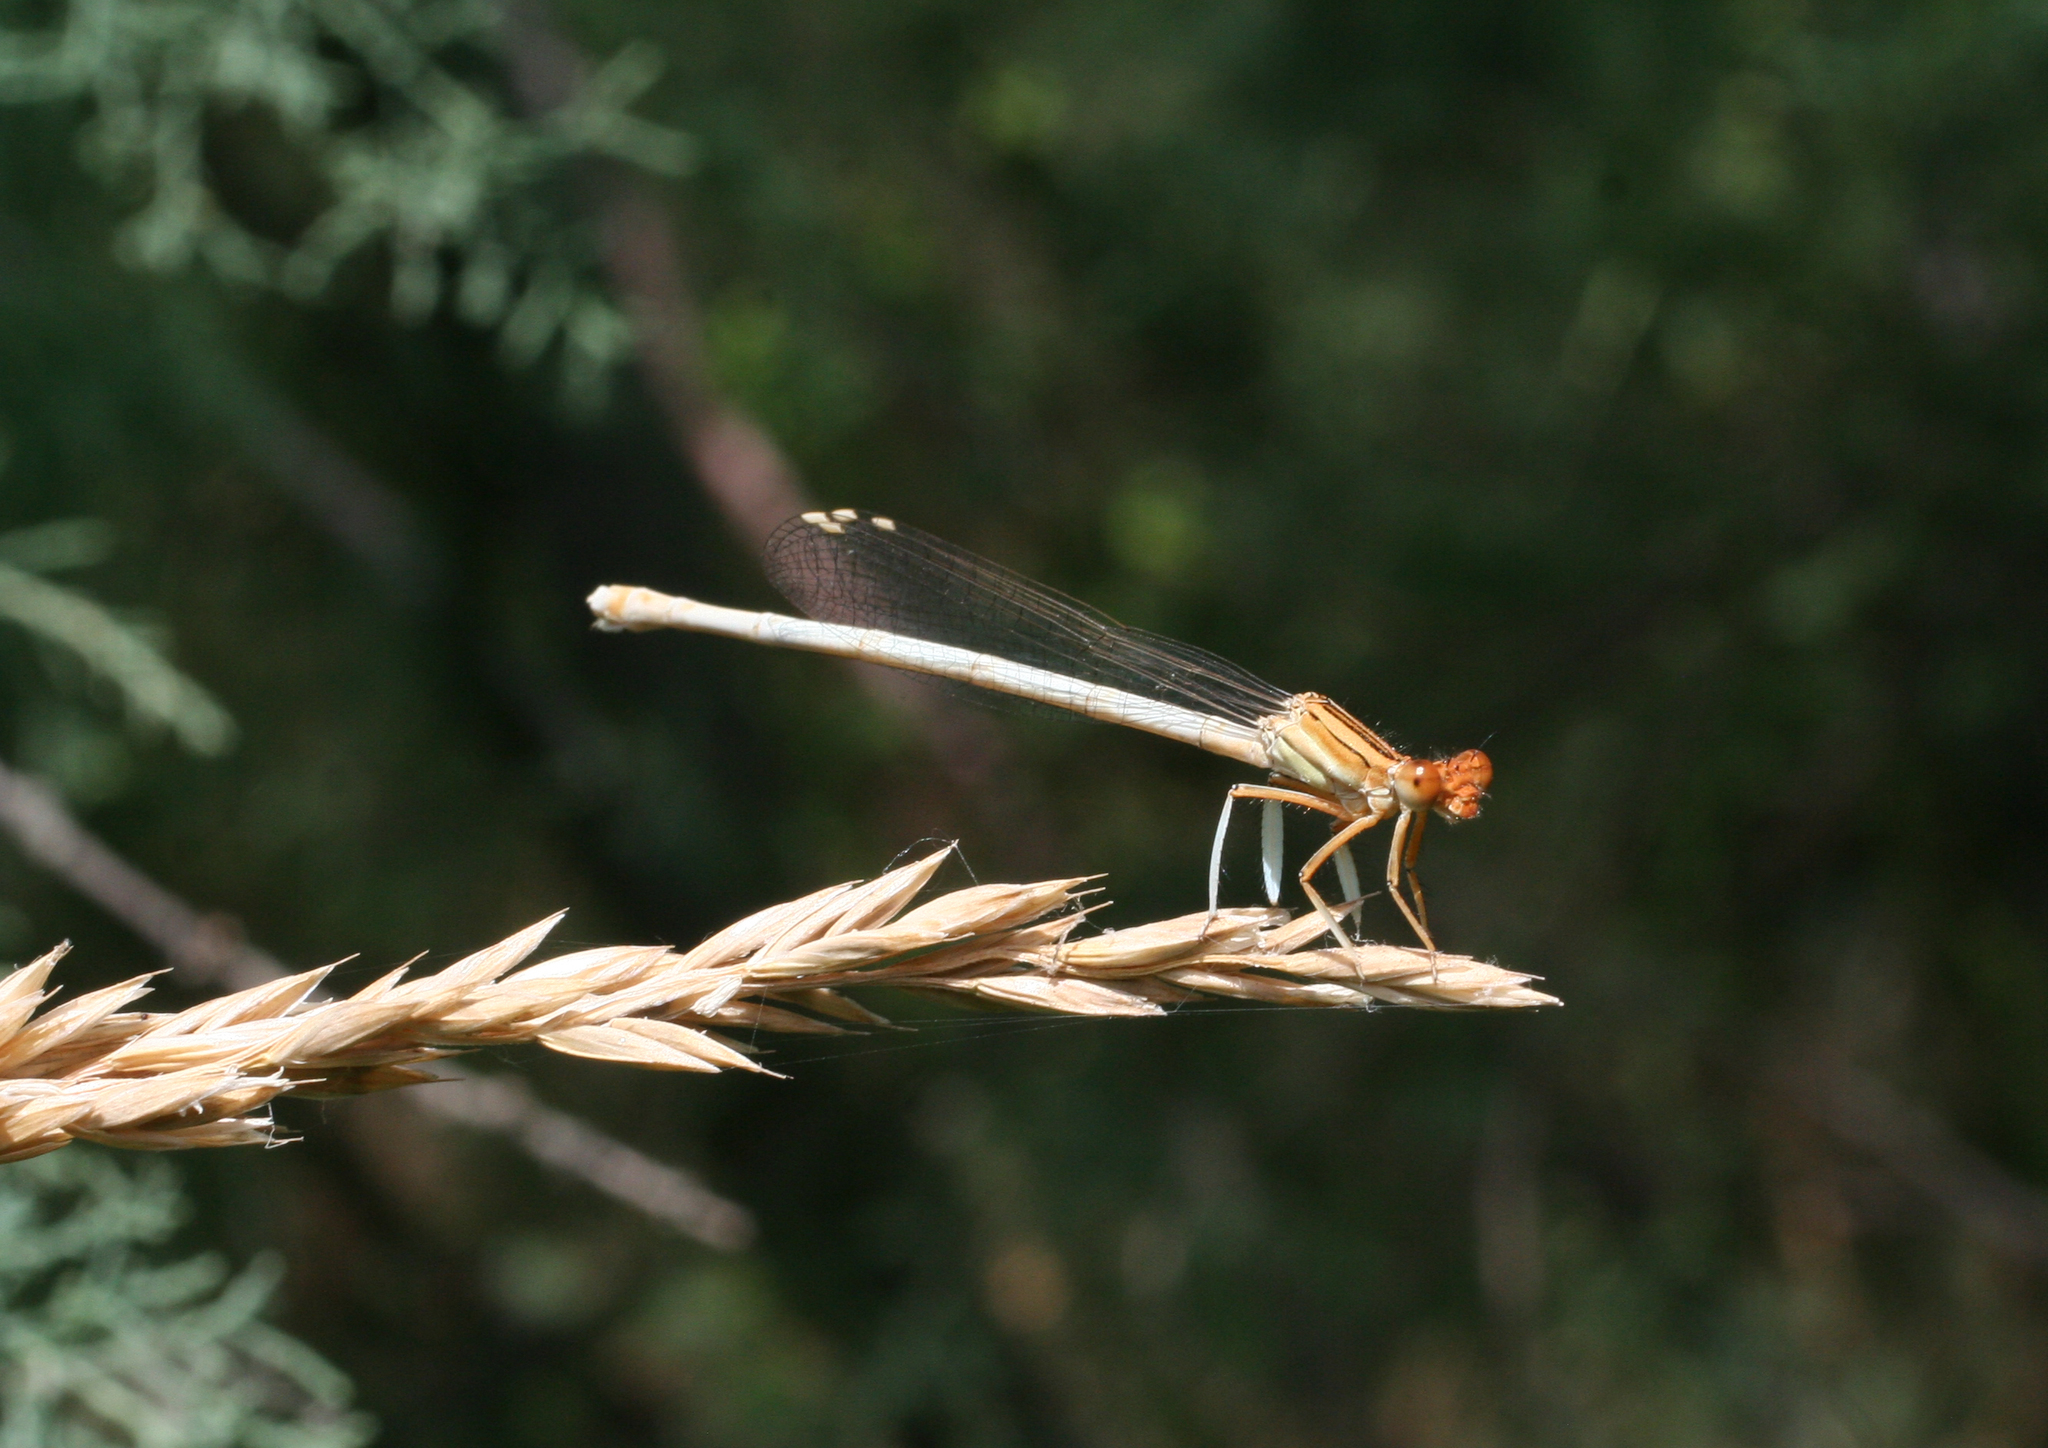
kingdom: Animalia
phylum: Arthropoda
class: Insecta
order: Odonata
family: Platycnemididae
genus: Platycnemis
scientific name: Platycnemis dealbata
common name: Ivory featherleg
